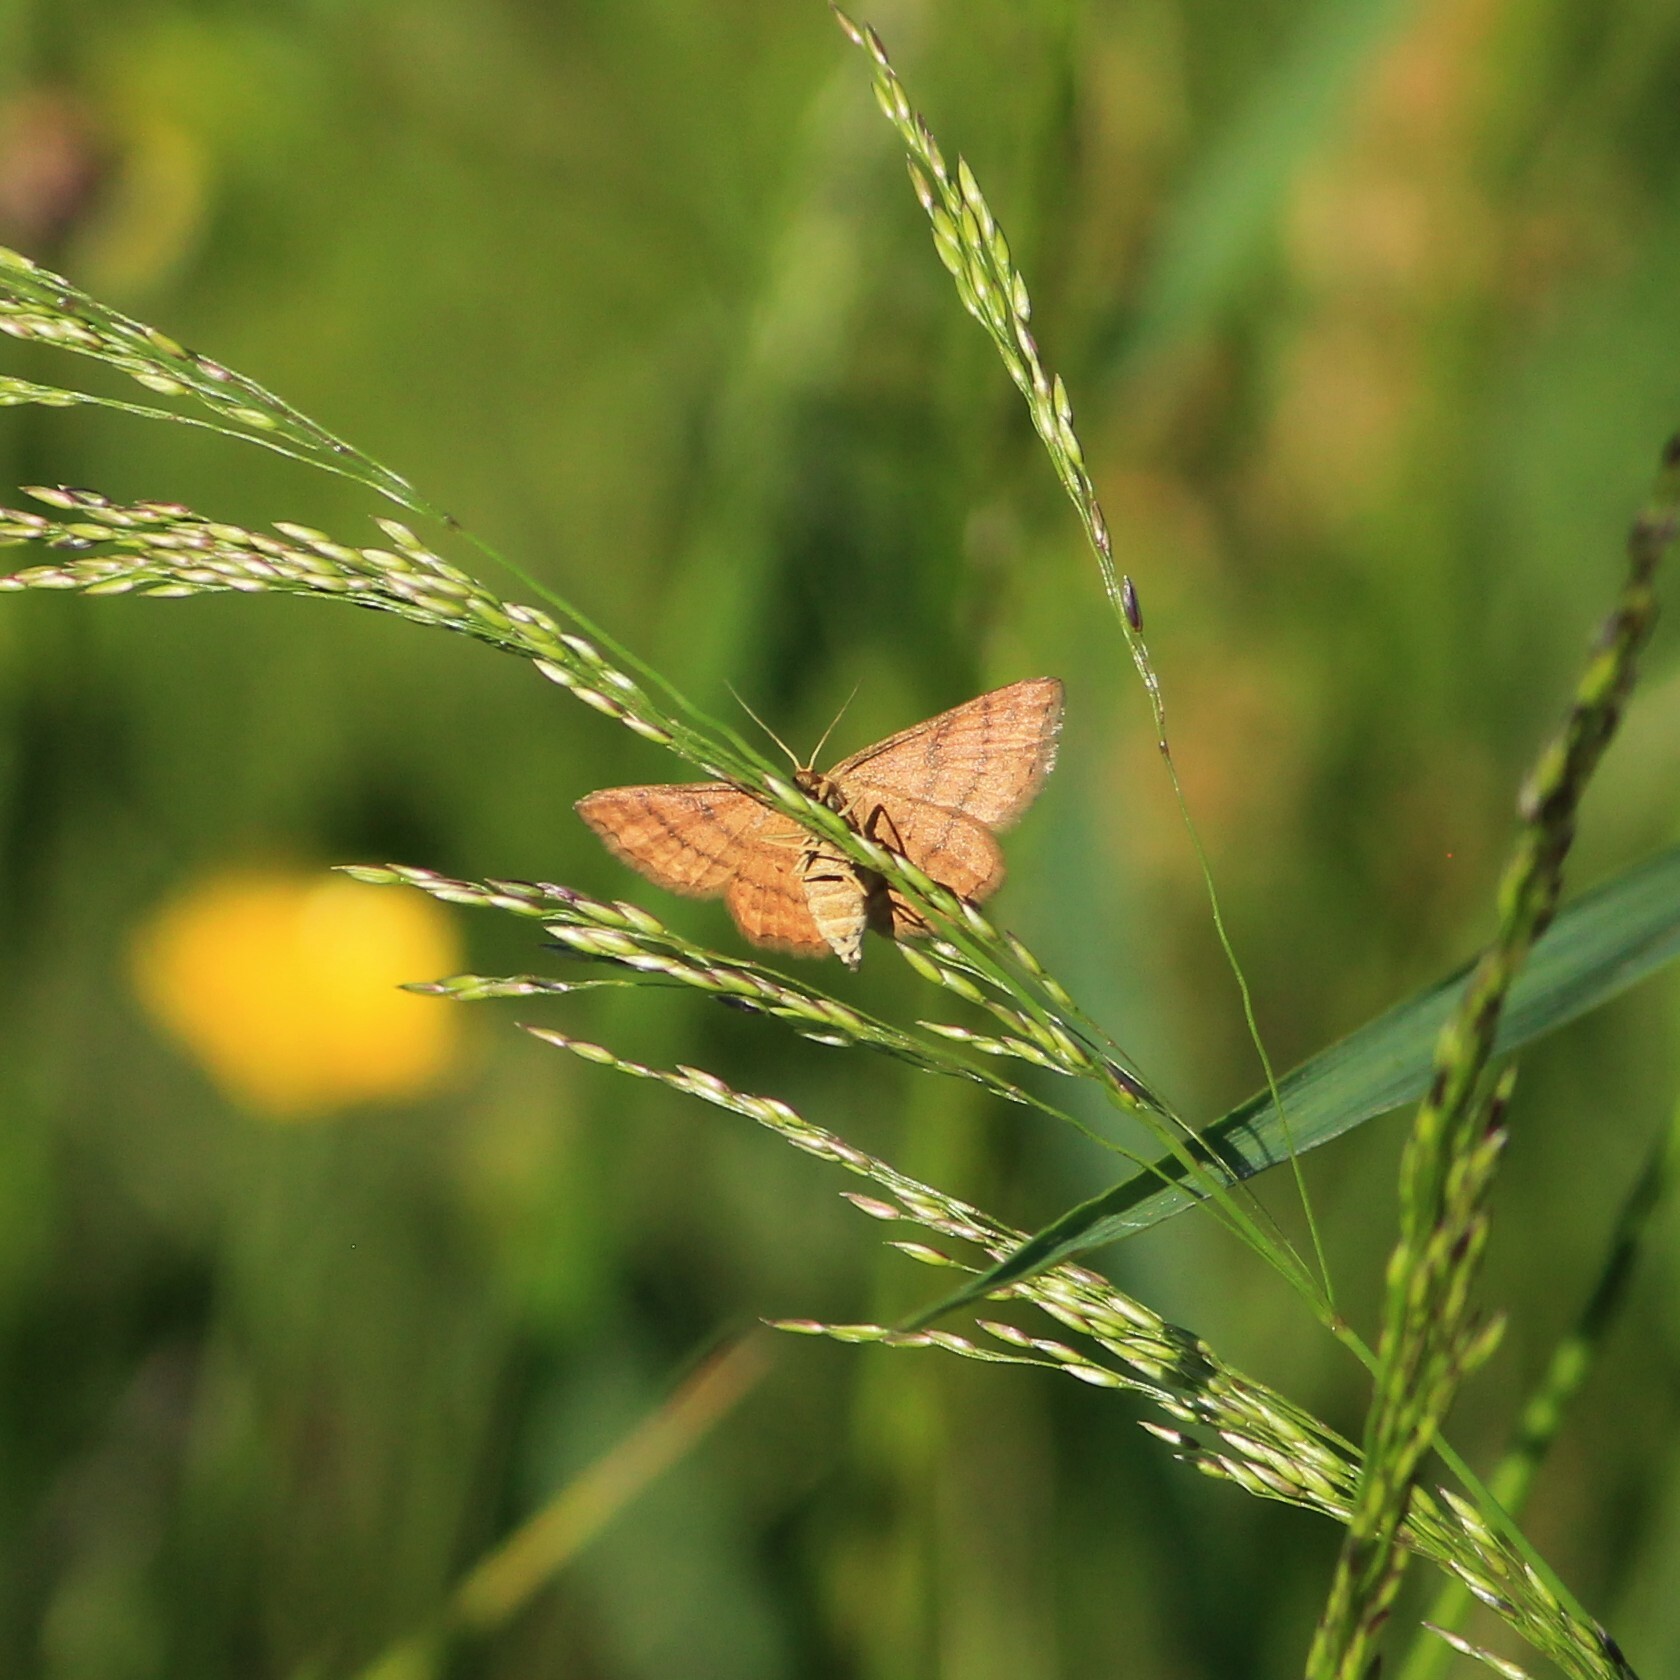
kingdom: Animalia
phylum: Arthropoda
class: Insecta
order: Lepidoptera
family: Geometridae
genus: Idaea
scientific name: Idaea serpentata
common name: Ochraceous wave
